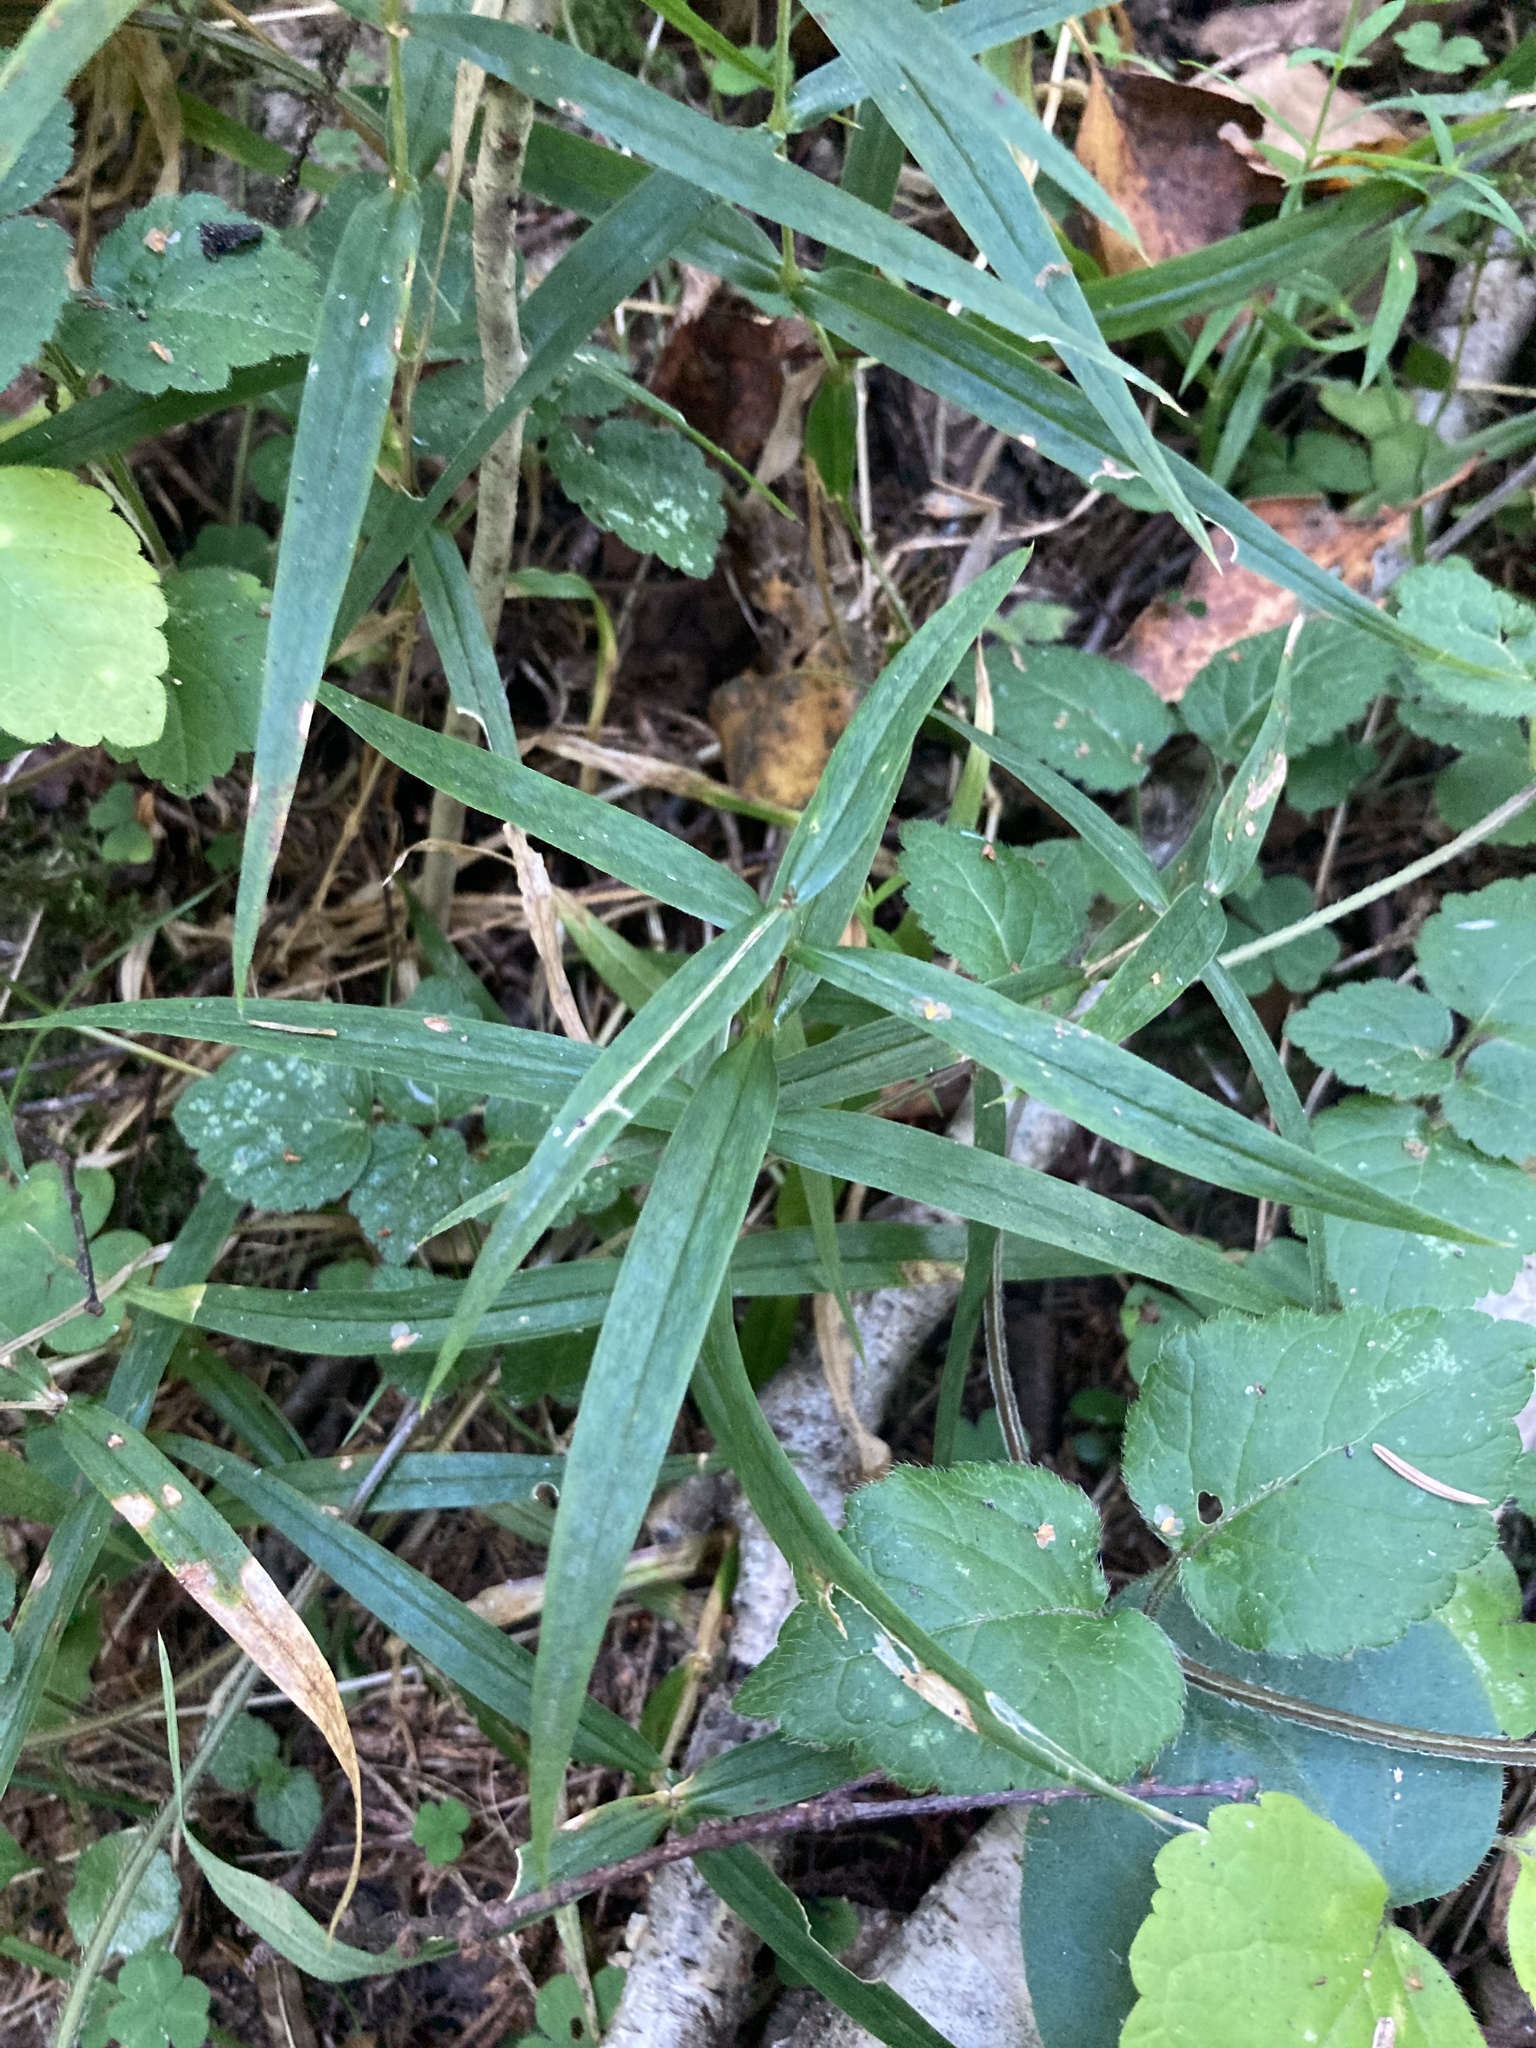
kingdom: Plantae
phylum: Tracheophyta
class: Magnoliopsida
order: Caryophyllales
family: Caryophyllaceae
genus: Rabelera
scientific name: Rabelera holostea
